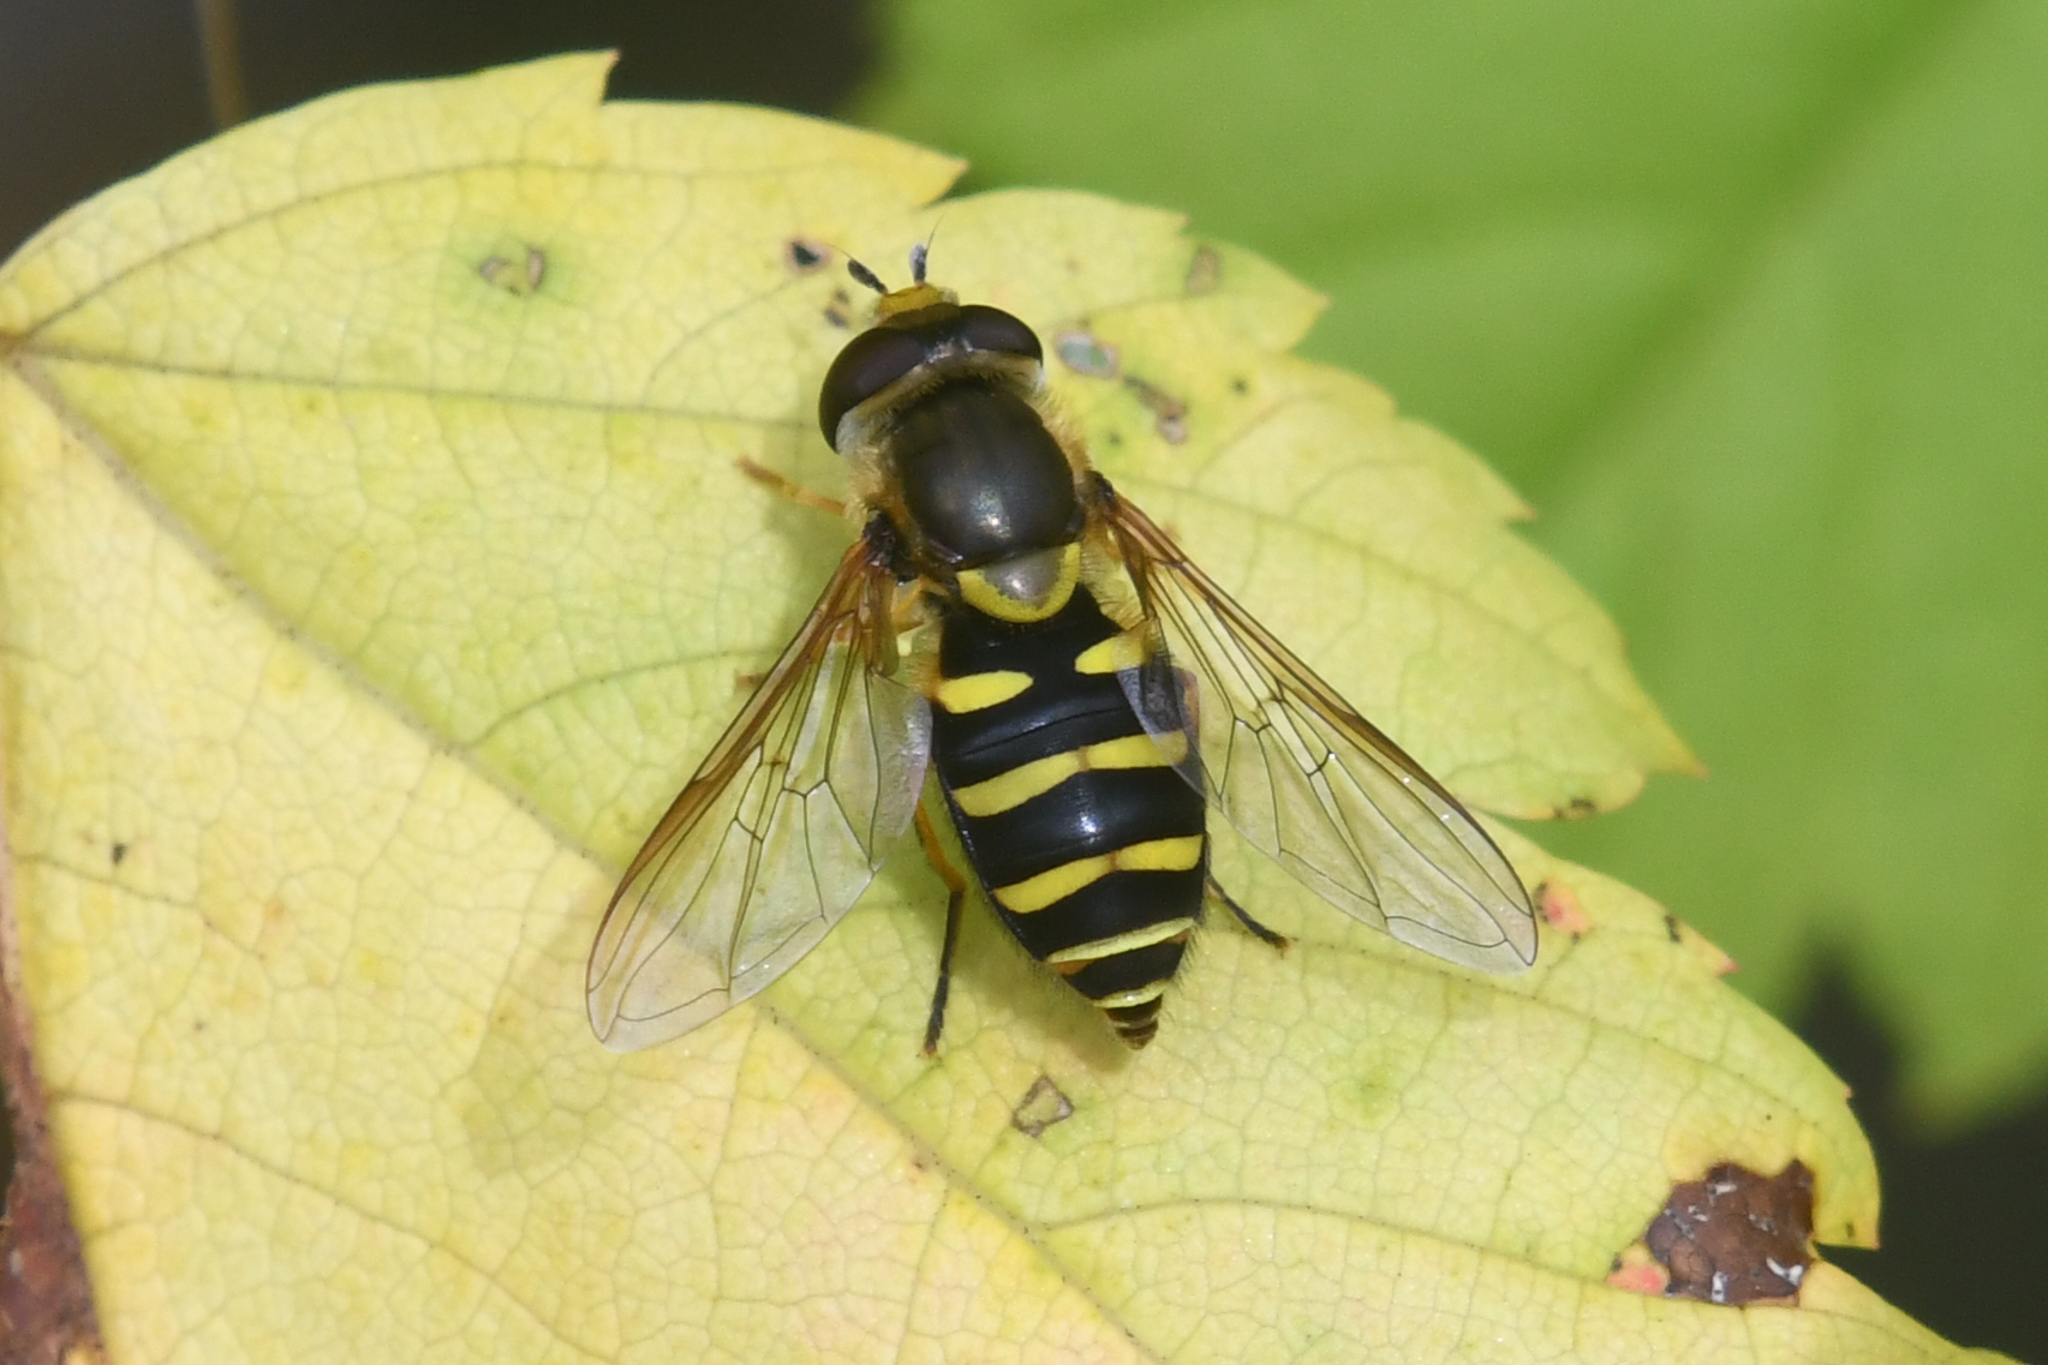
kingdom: Animalia
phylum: Arthropoda
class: Insecta
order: Diptera
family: Syrphidae
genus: Syrphus
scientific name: Syrphus opinator
